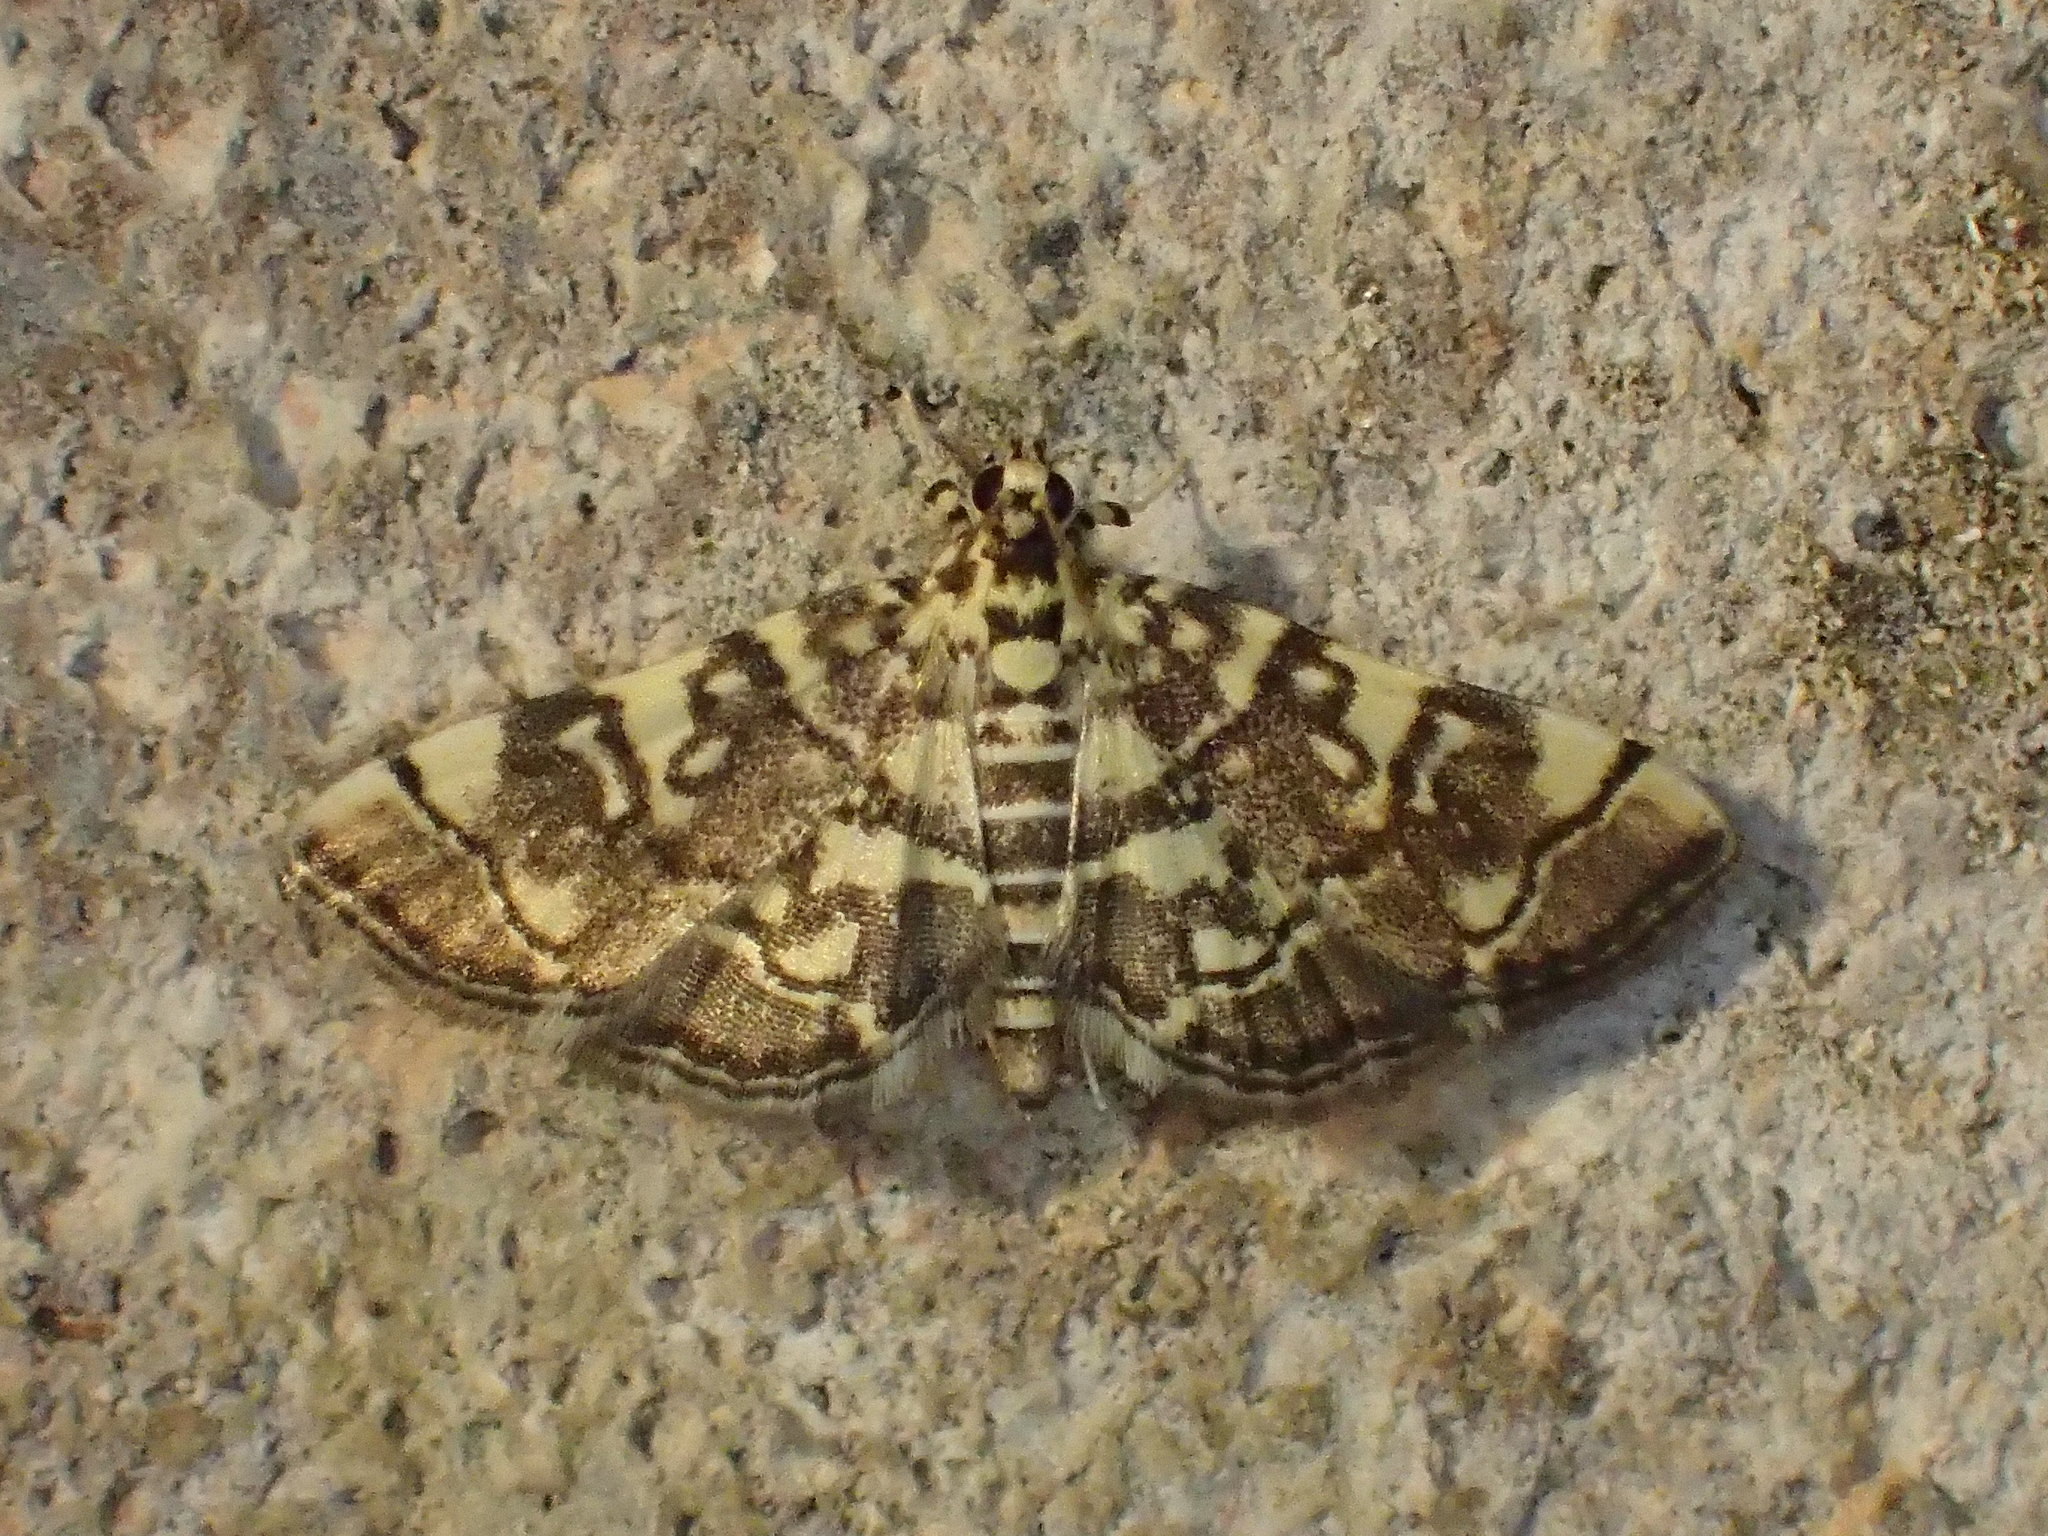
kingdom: Animalia
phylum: Arthropoda
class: Insecta
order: Lepidoptera
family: Crambidae
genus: Apogeshna
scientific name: Apogeshna stenialis
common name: Checkered apogeshna moth
